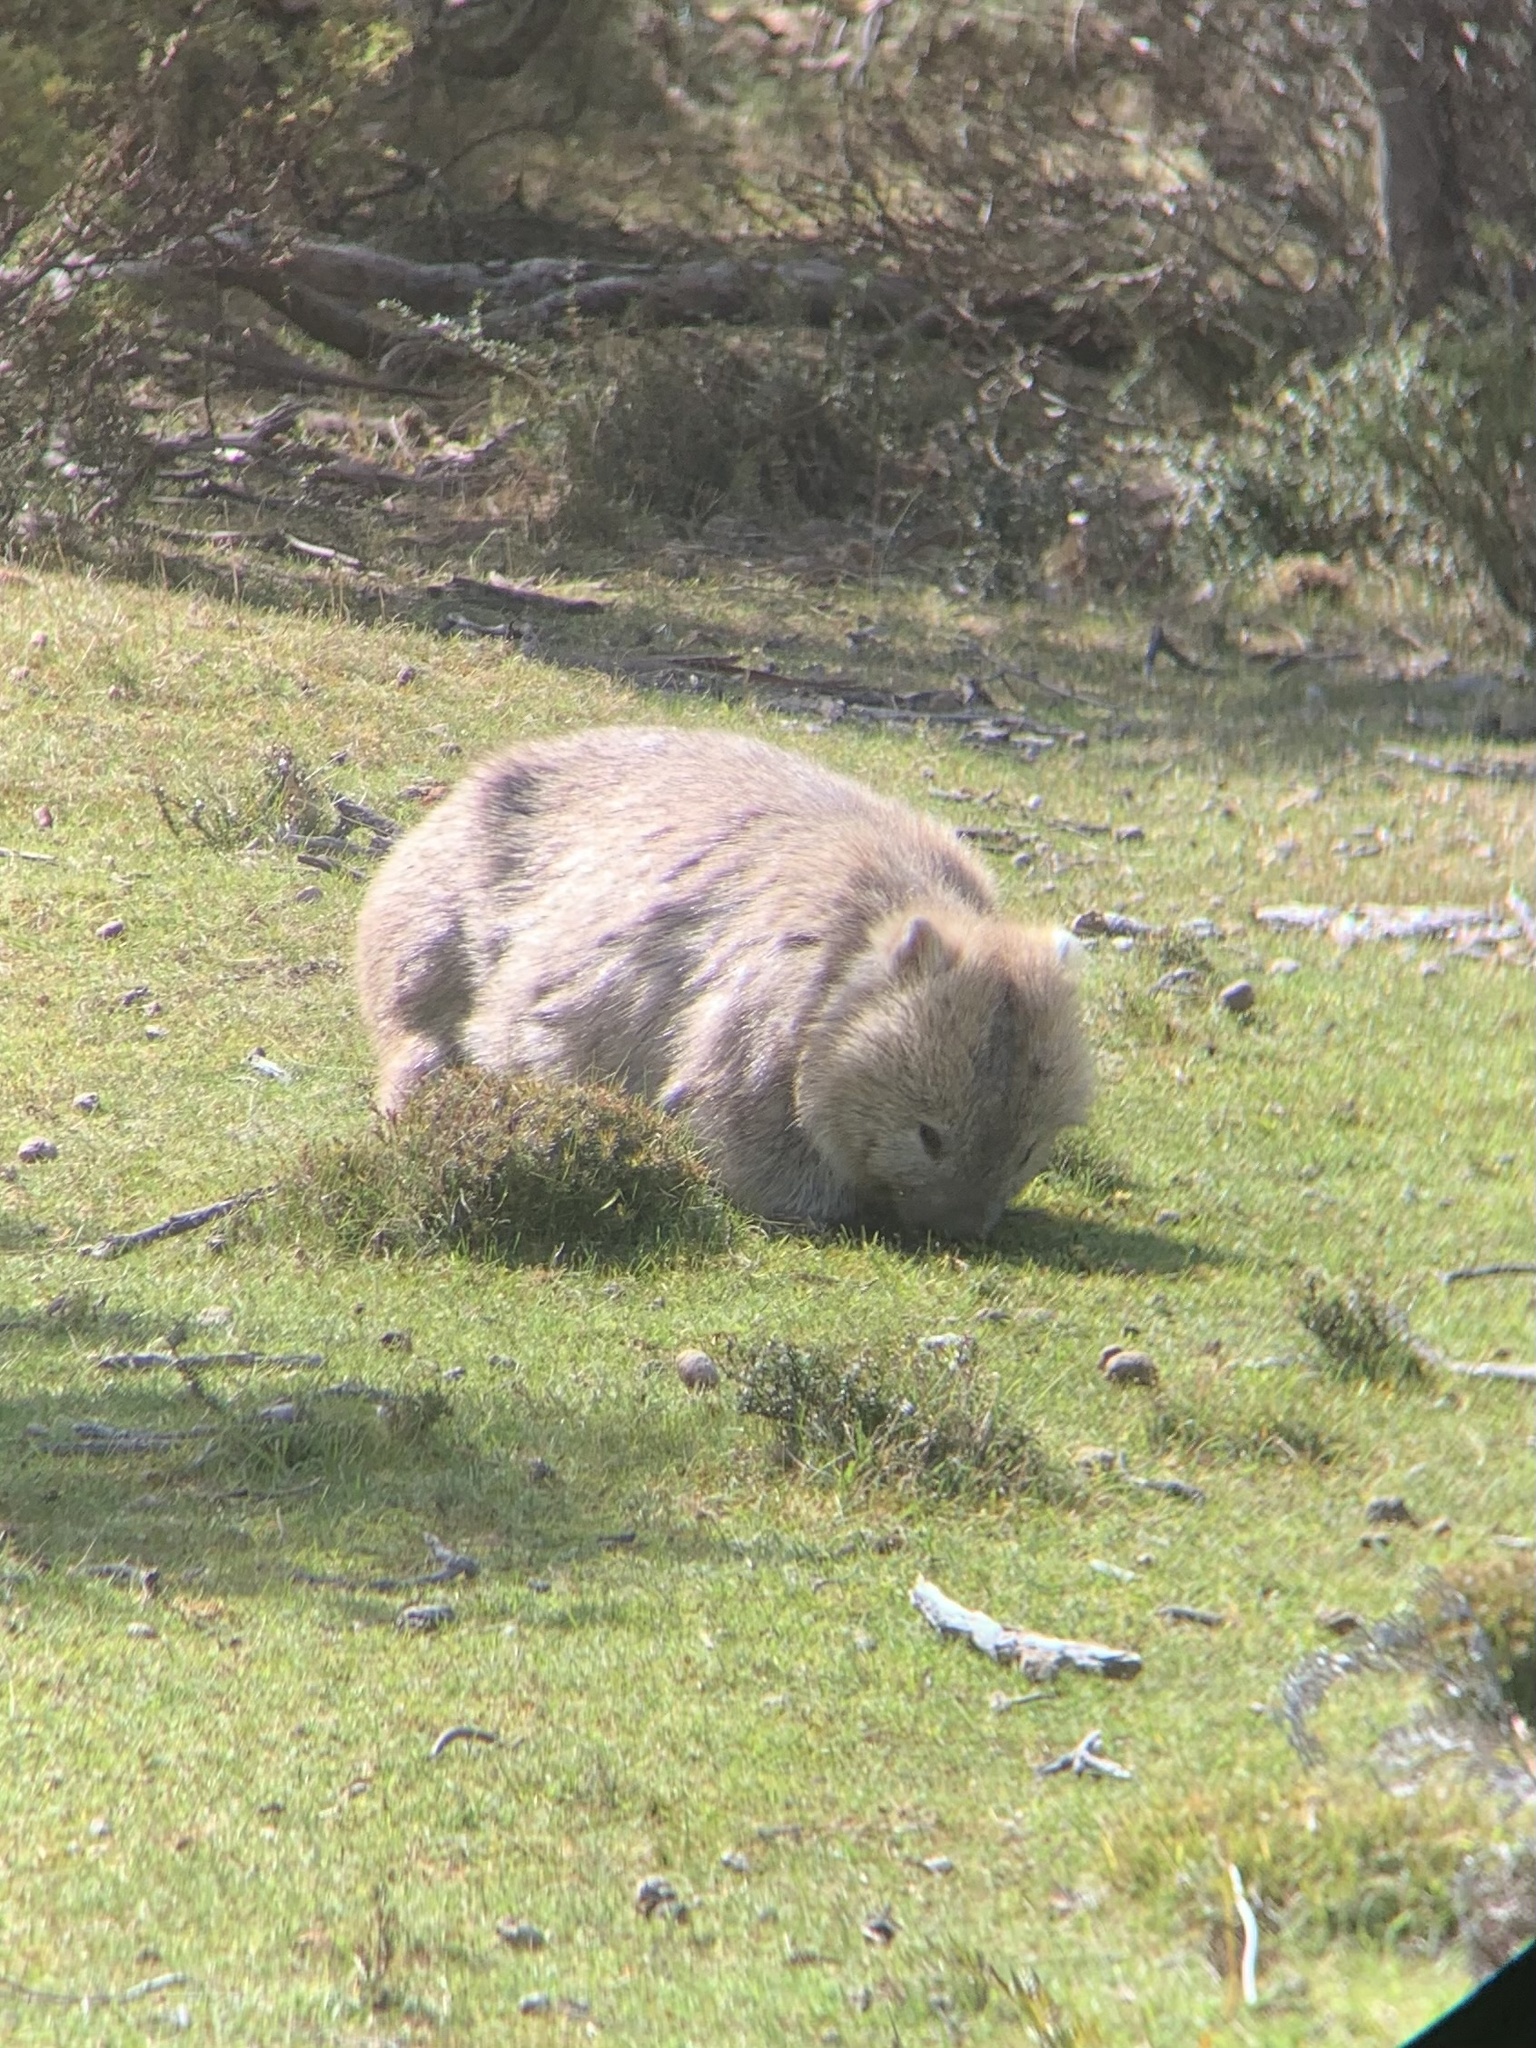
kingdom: Animalia
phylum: Chordata
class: Mammalia
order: Diprotodontia
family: Vombatidae
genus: Vombatus
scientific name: Vombatus ursinus
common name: Common wombat
